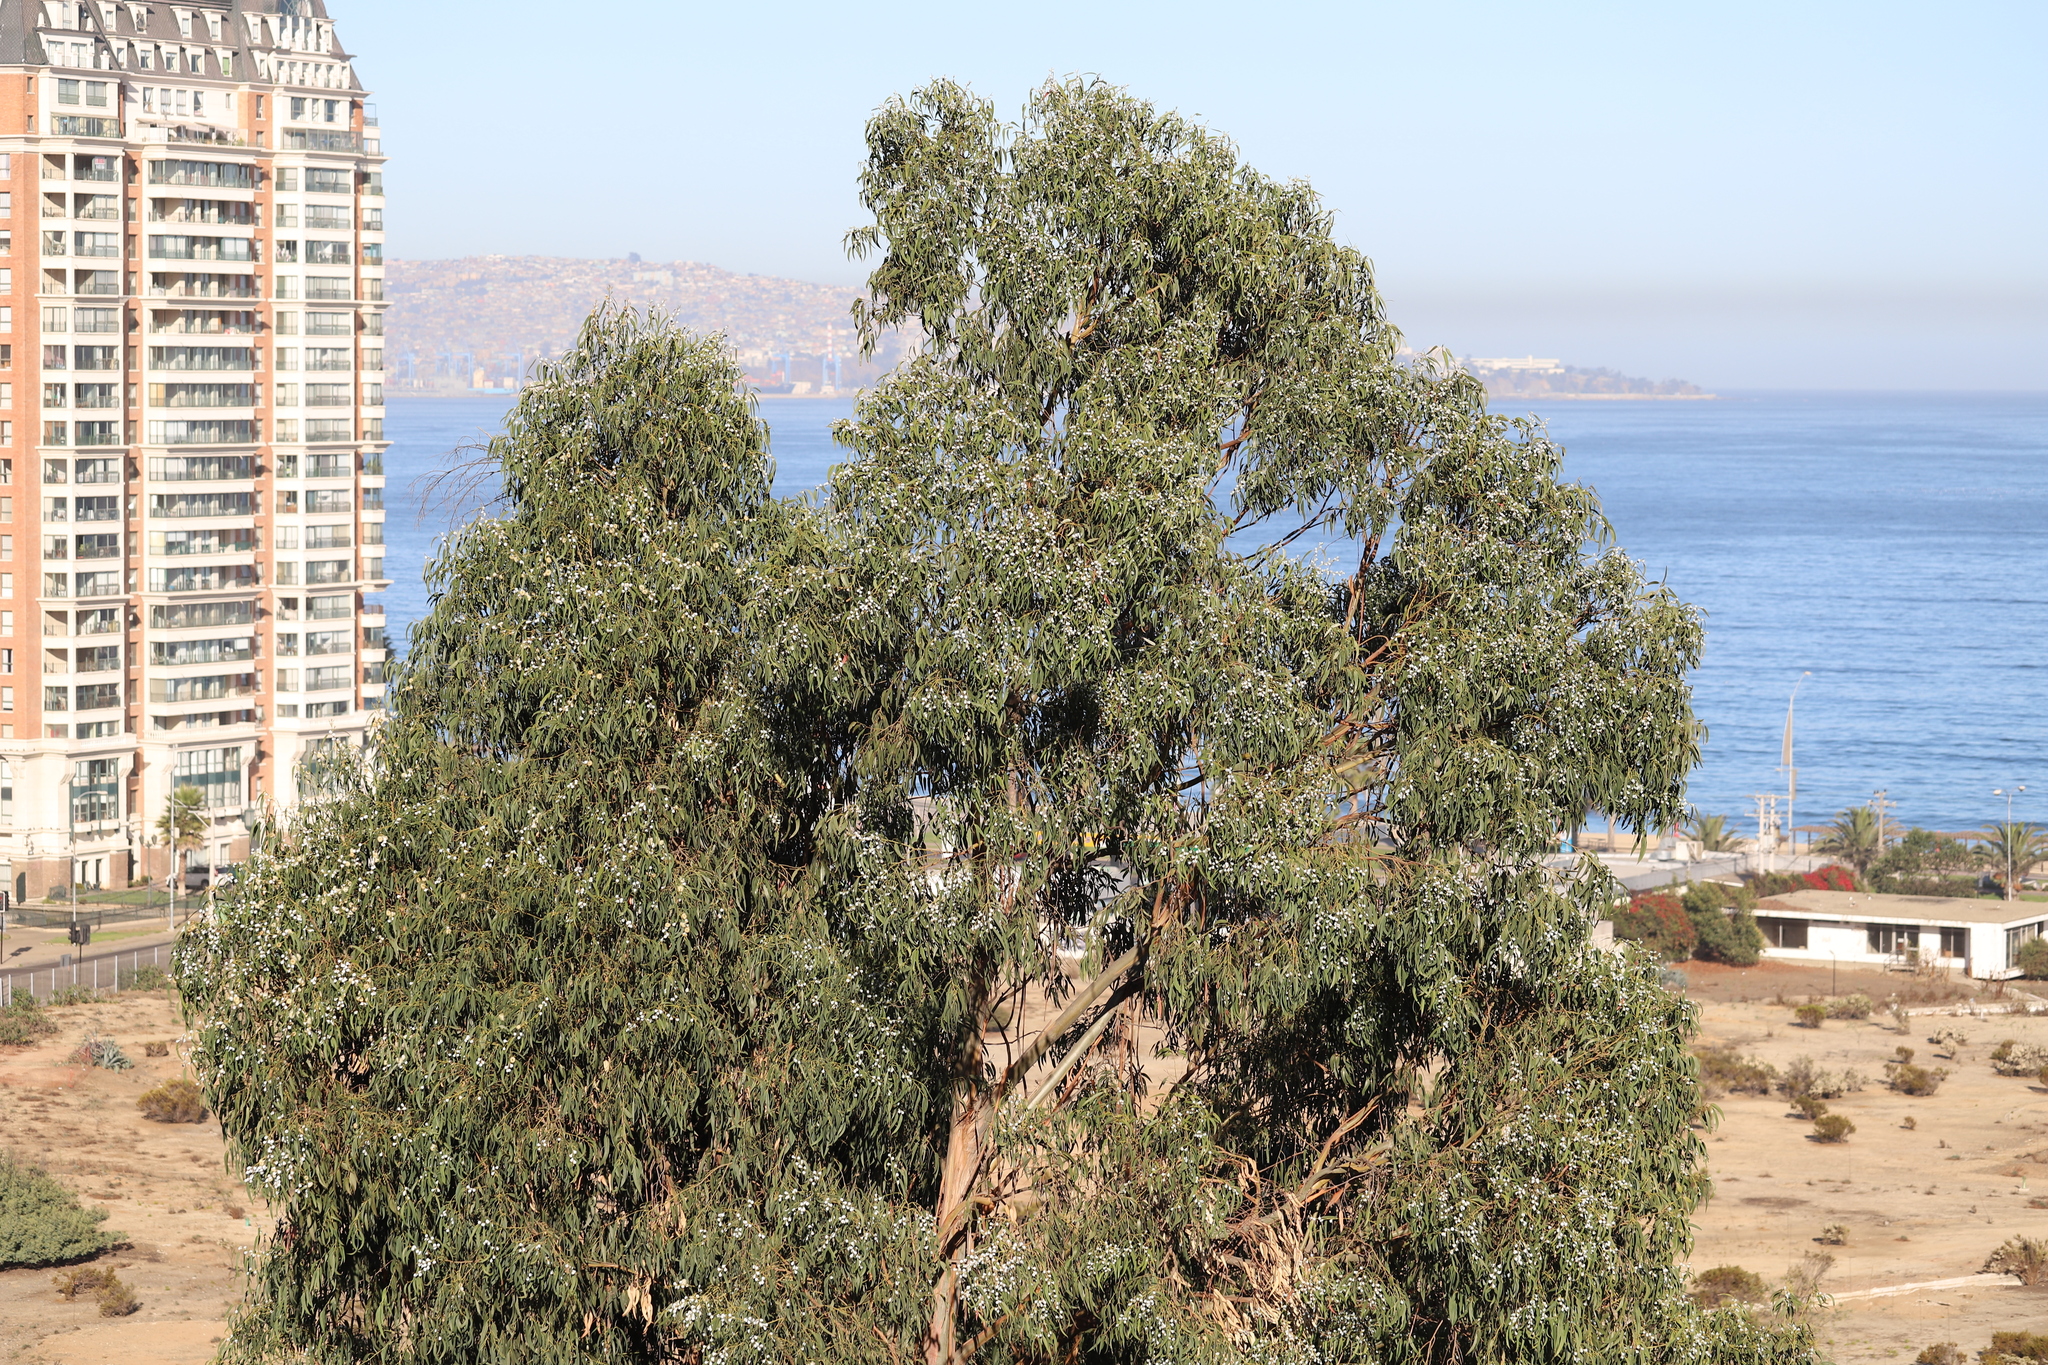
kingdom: Plantae
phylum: Tracheophyta
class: Magnoliopsida
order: Myrtales
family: Myrtaceae
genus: Eucalyptus
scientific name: Eucalyptus globulus
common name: Southern blue-gum
